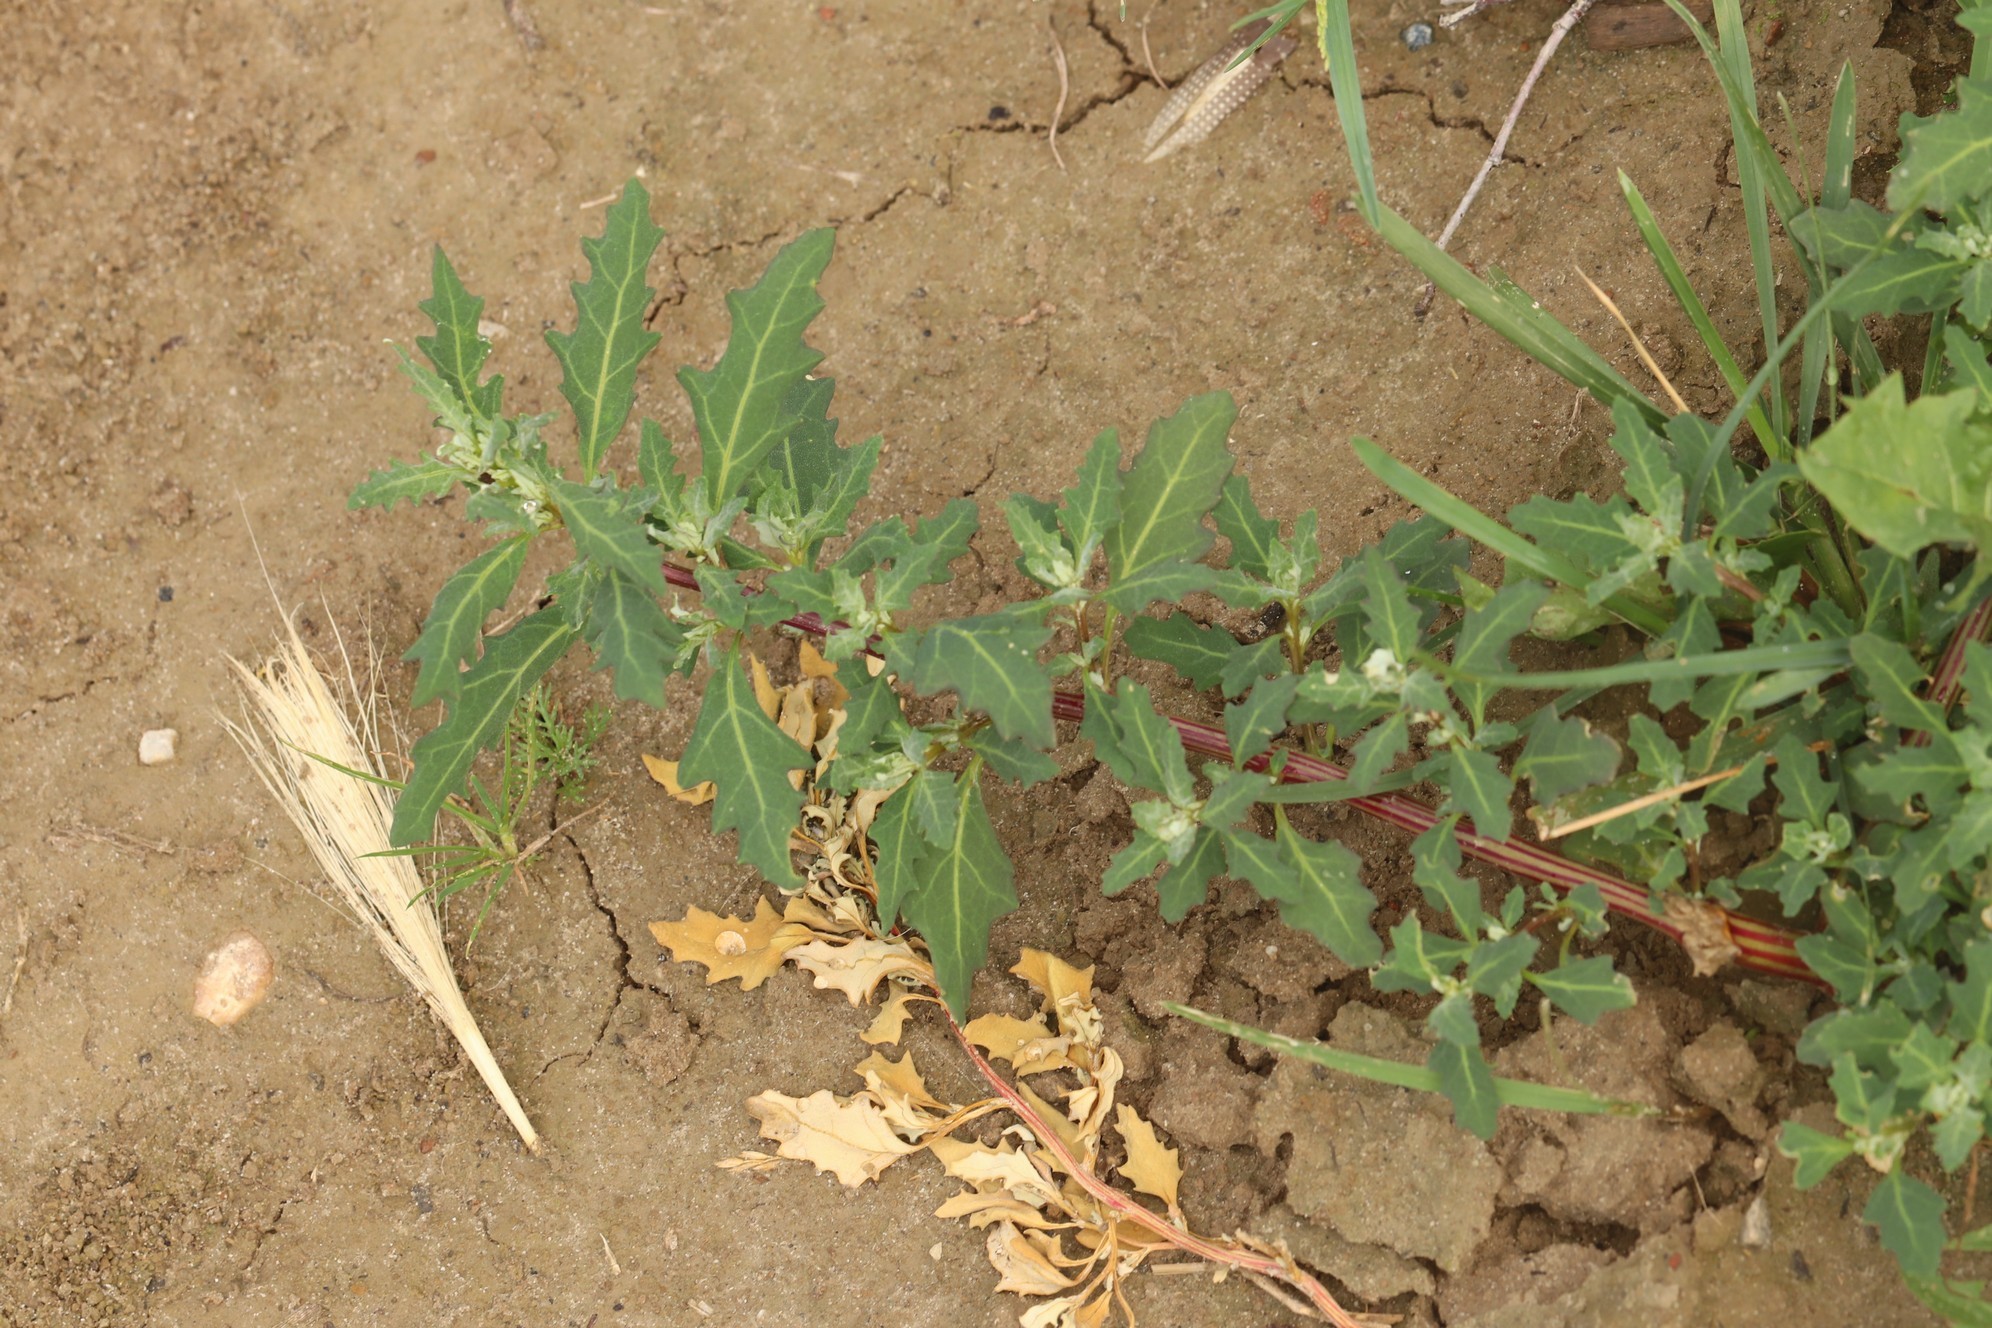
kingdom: Plantae
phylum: Tracheophyta
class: Magnoliopsida
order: Caryophyllales
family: Amaranthaceae
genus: Oxybasis
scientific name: Oxybasis glauca
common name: Glaucous goosefoot
